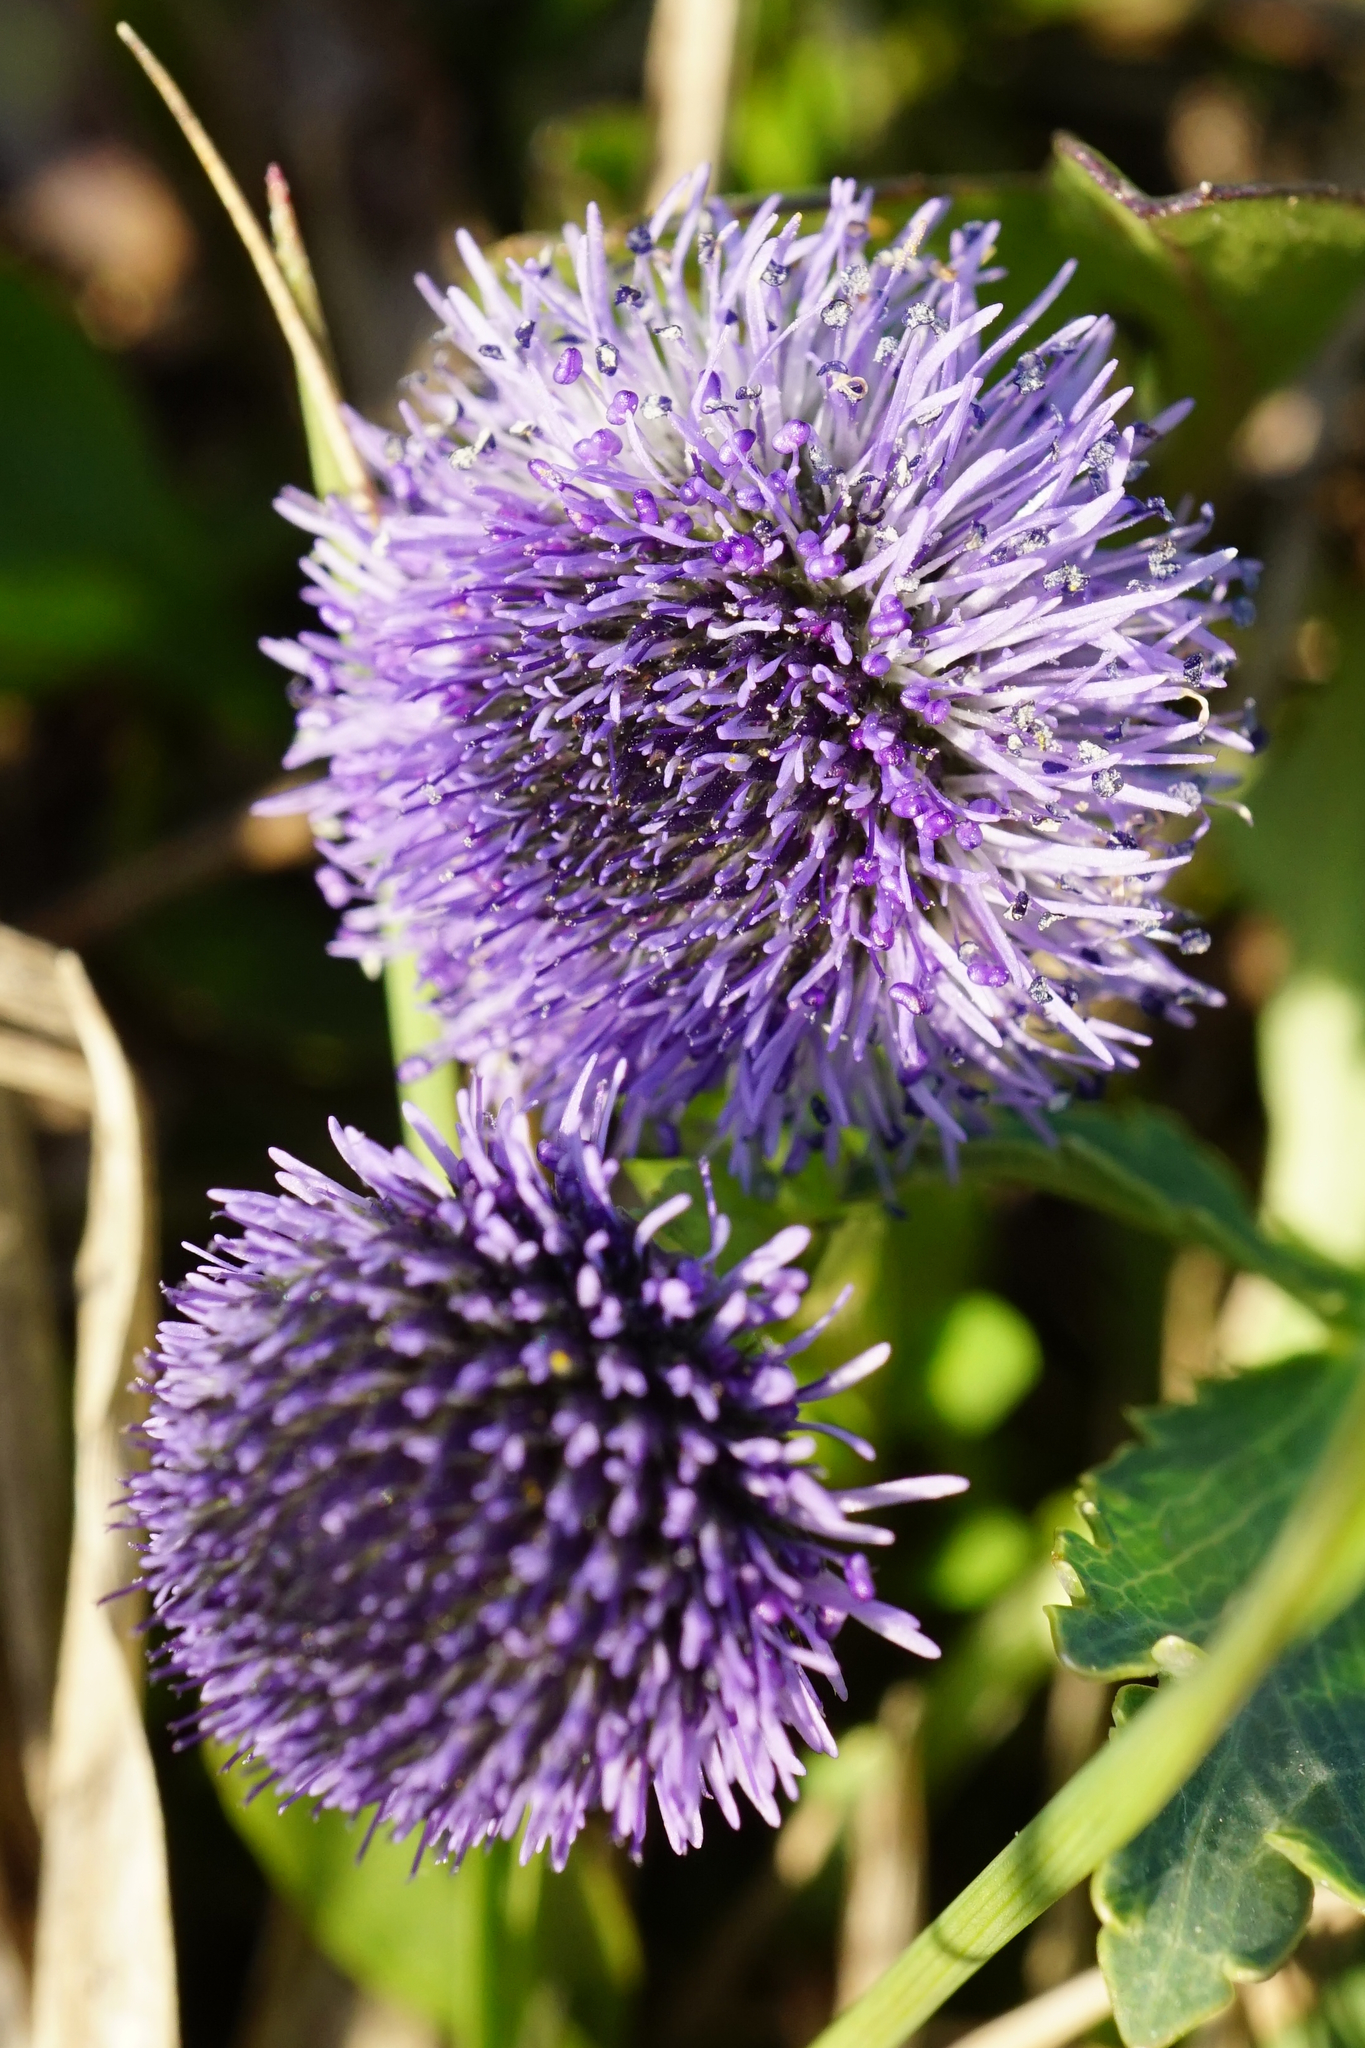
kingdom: Plantae
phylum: Tracheophyta
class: Magnoliopsida
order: Lamiales
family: Plantaginaceae
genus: Globularia
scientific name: Globularia bisnagarica
